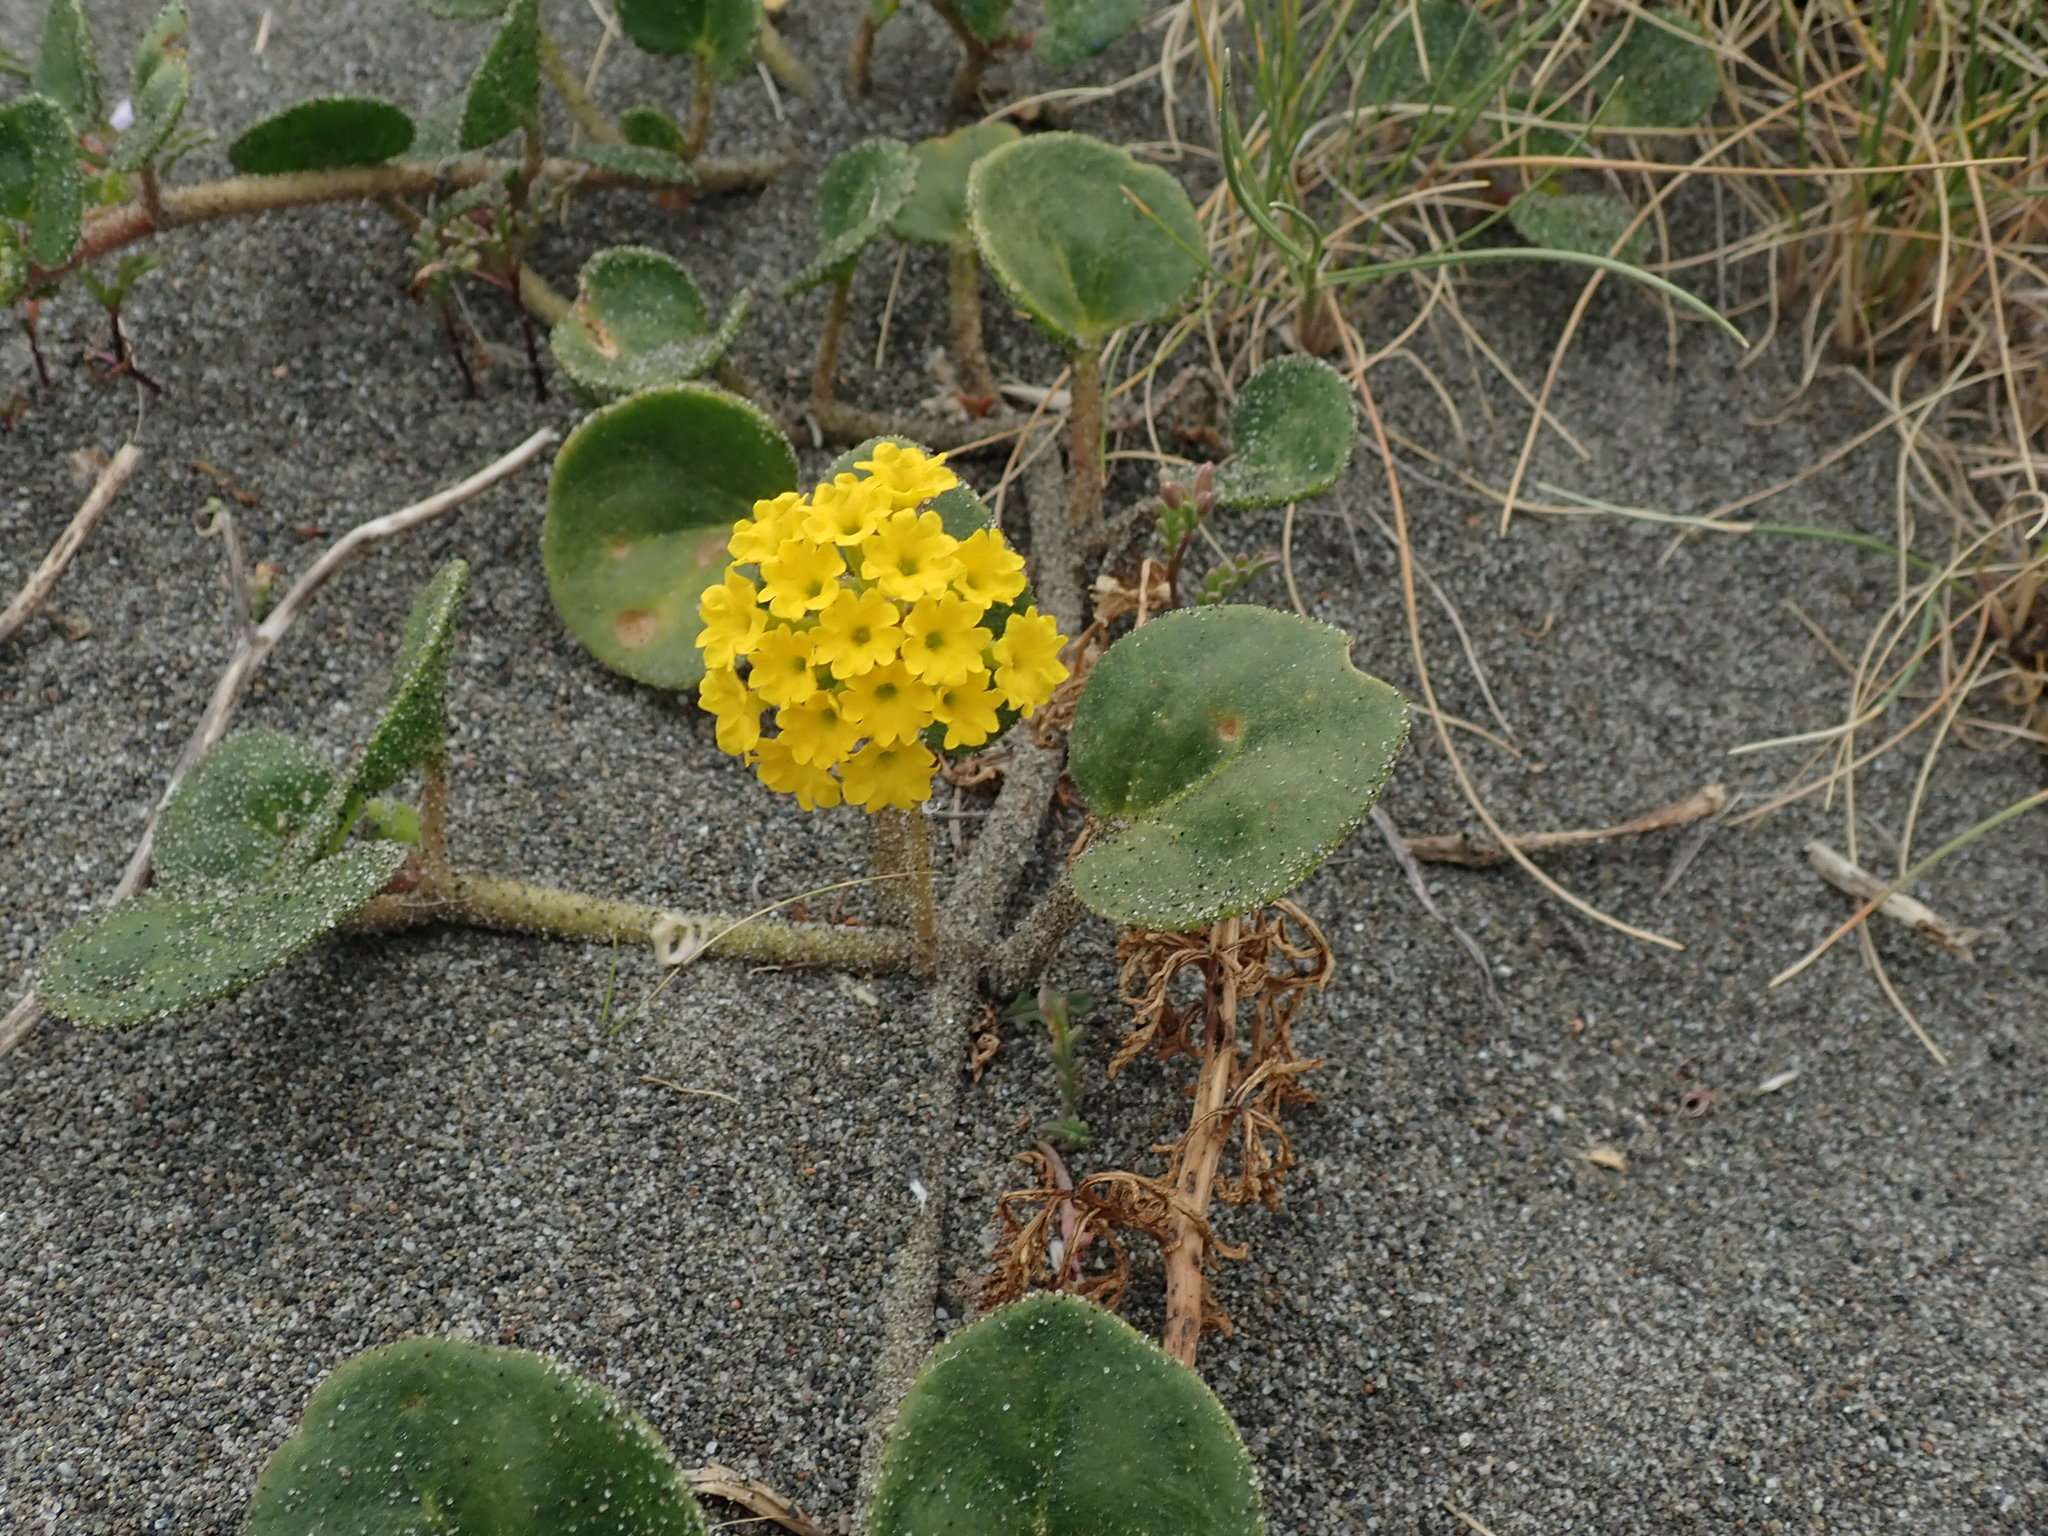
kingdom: Plantae
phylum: Tracheophyta
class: Magnoliopsida
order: Caryophyllales
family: Nyctaginaceae
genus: Abronia
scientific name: Abronia latifolia
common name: Yellow sand-verbena
